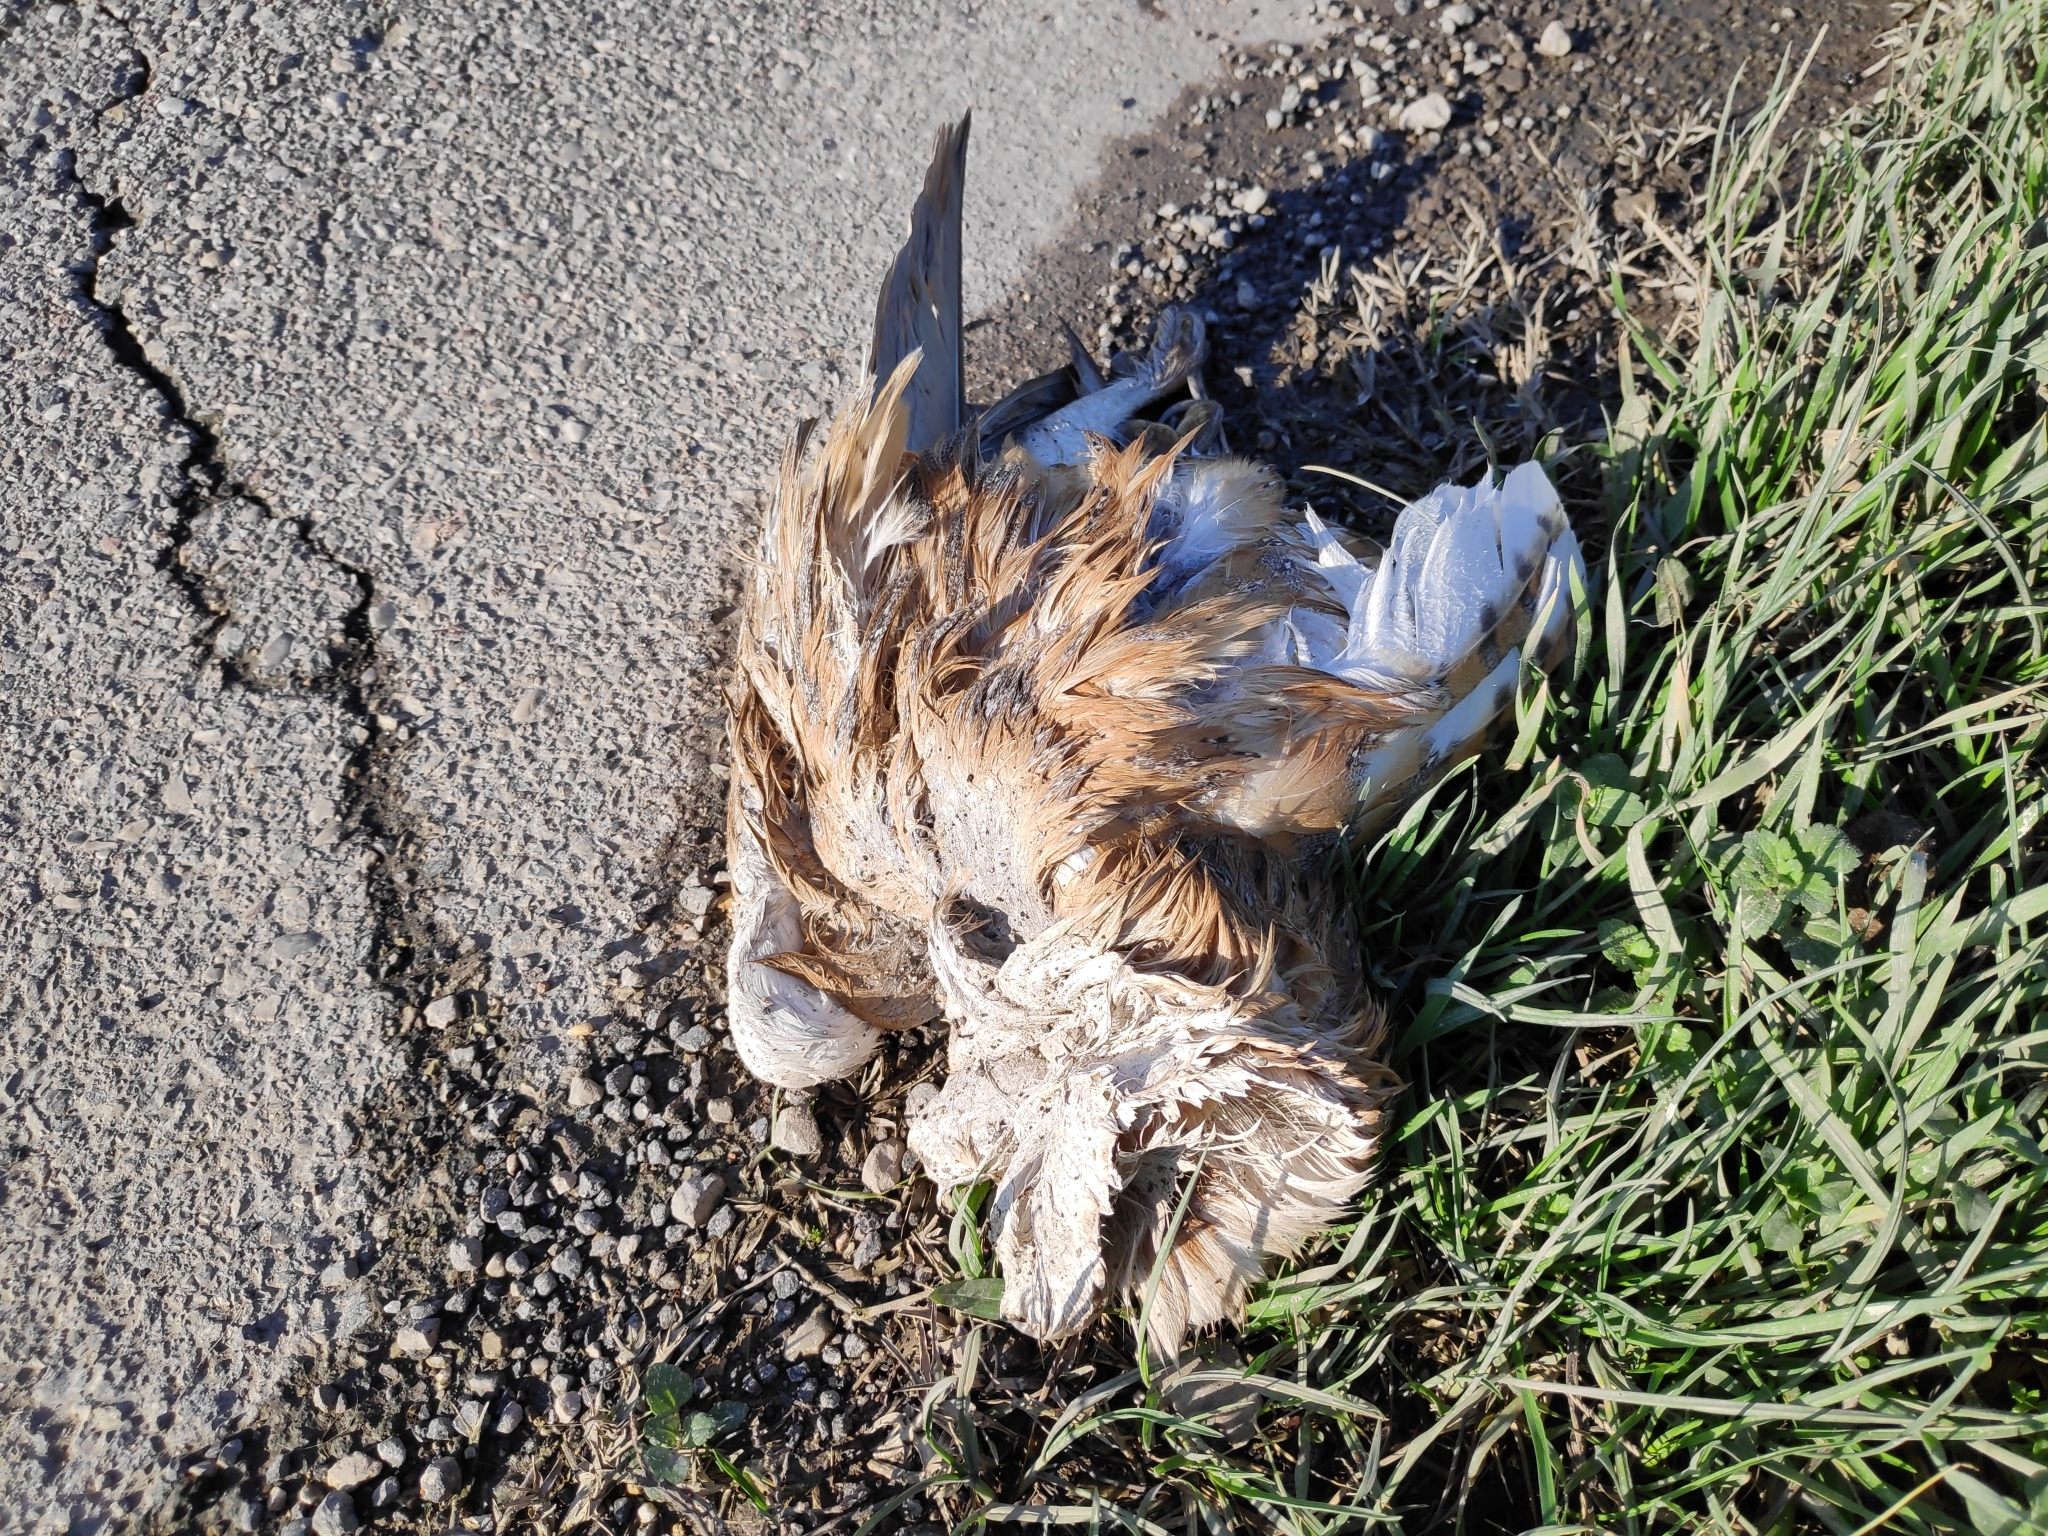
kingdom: Animalia
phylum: Chordata
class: Aves
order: Strigiformes
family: Tytonidae
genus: Tyto
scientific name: Tyto alba
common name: Barn owl
